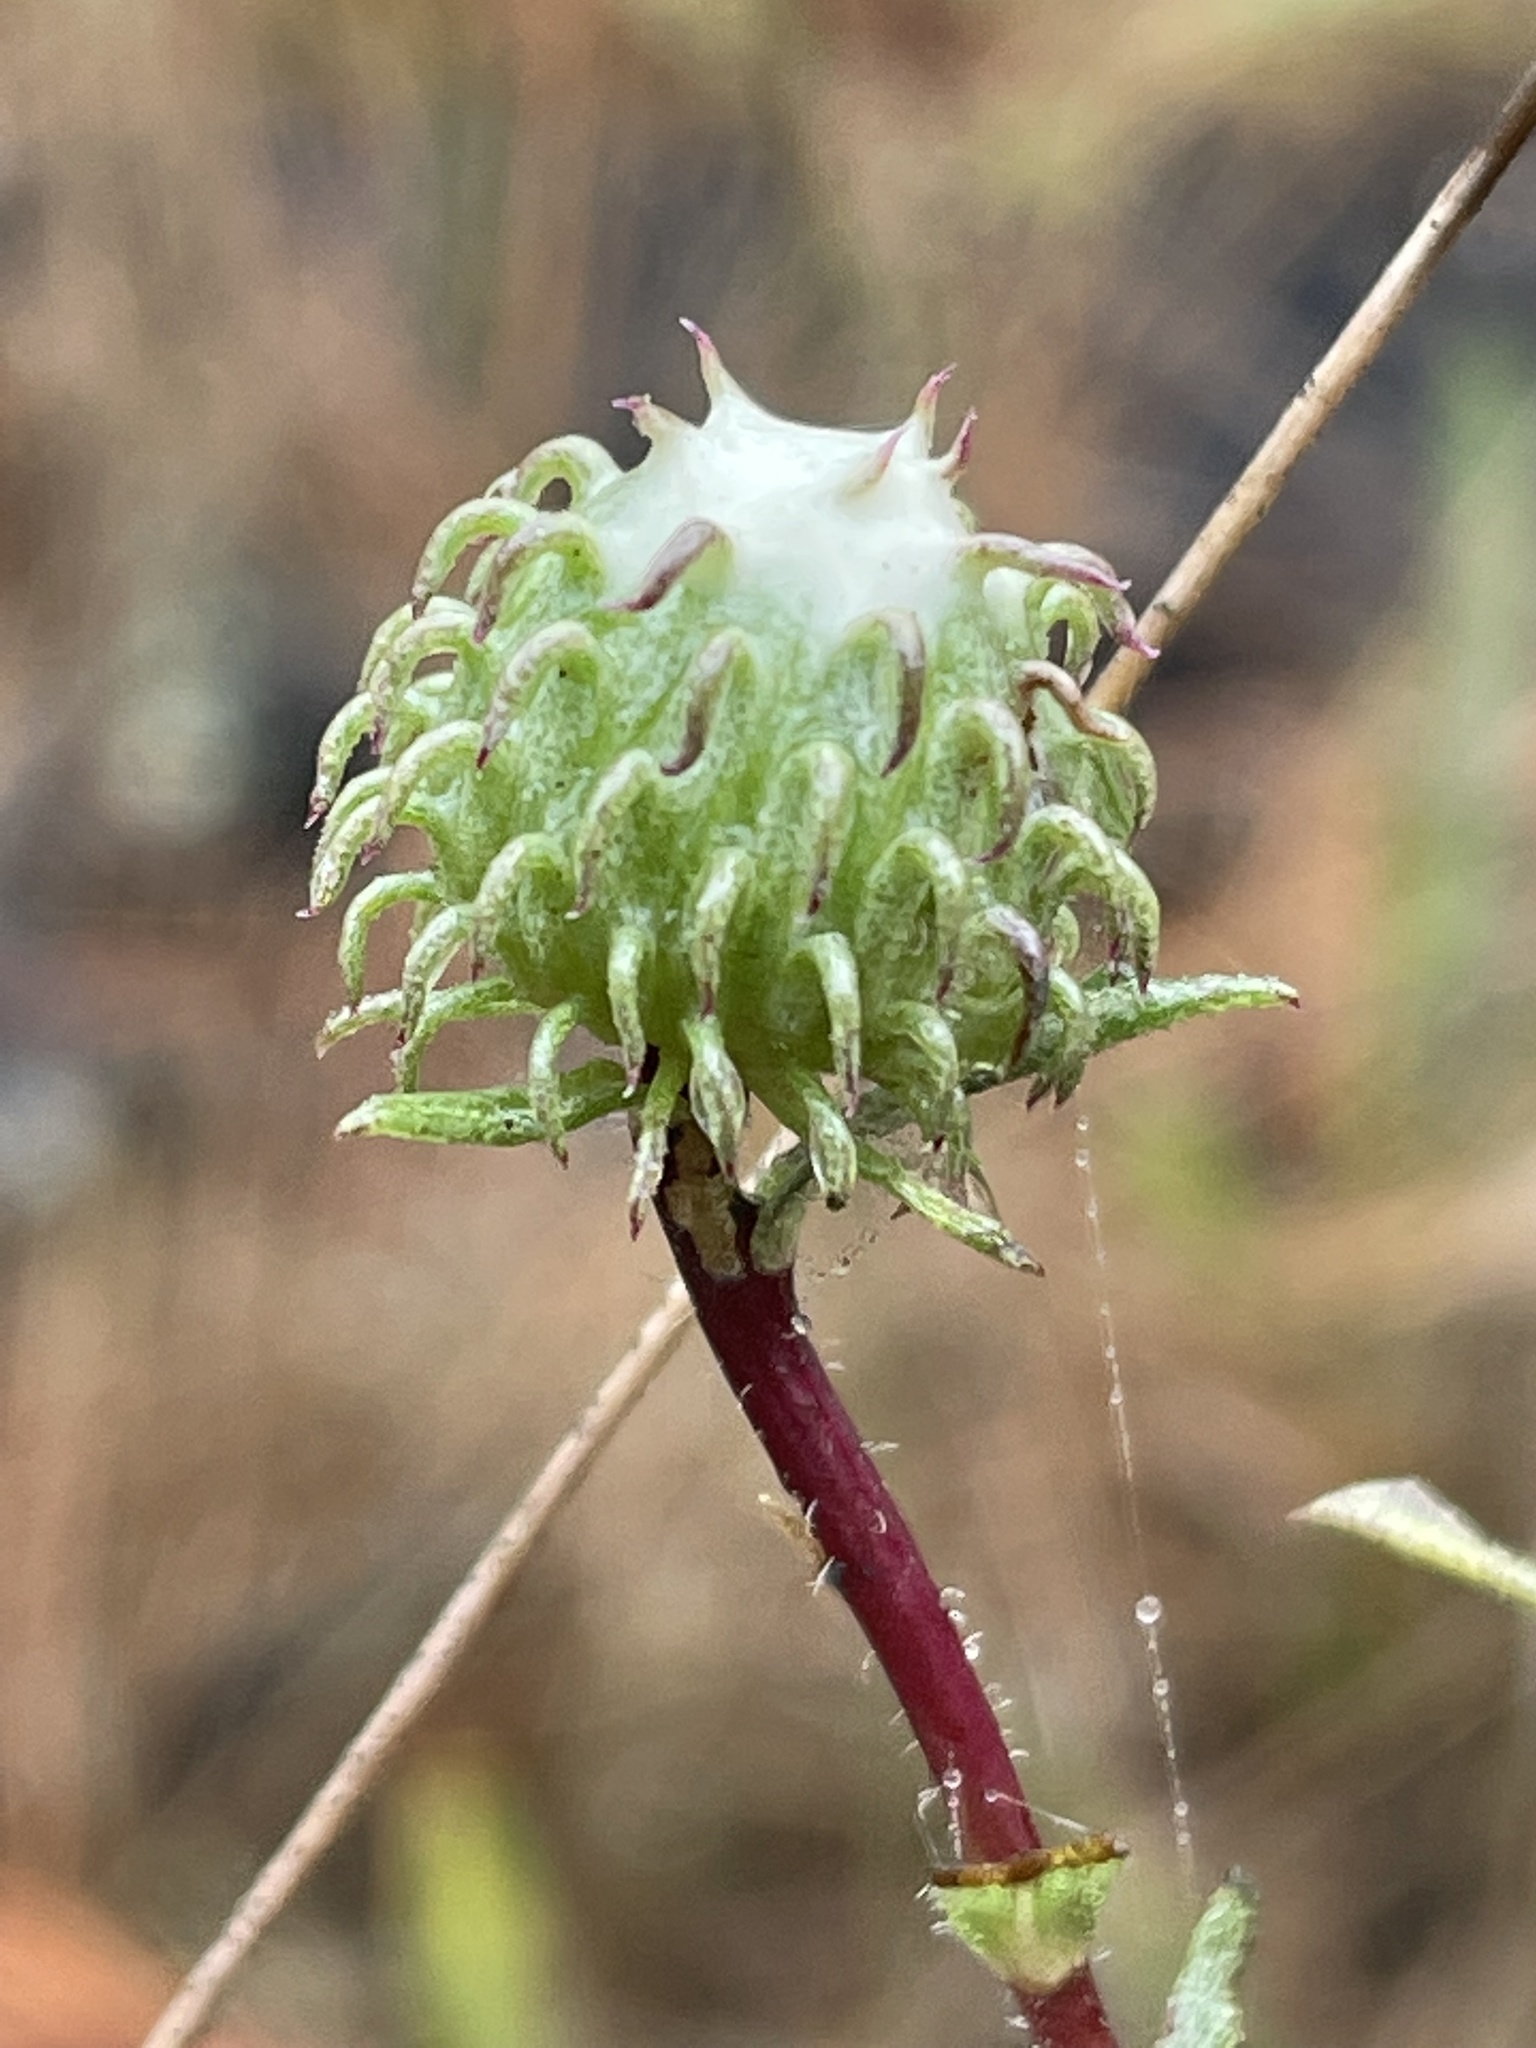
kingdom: Plantae
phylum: Tracheophyta
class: Magnoliopsida
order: Asterales
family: Asteraceae
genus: Grindelia
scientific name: Grindelia hirsutula
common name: Hairy gumweed
